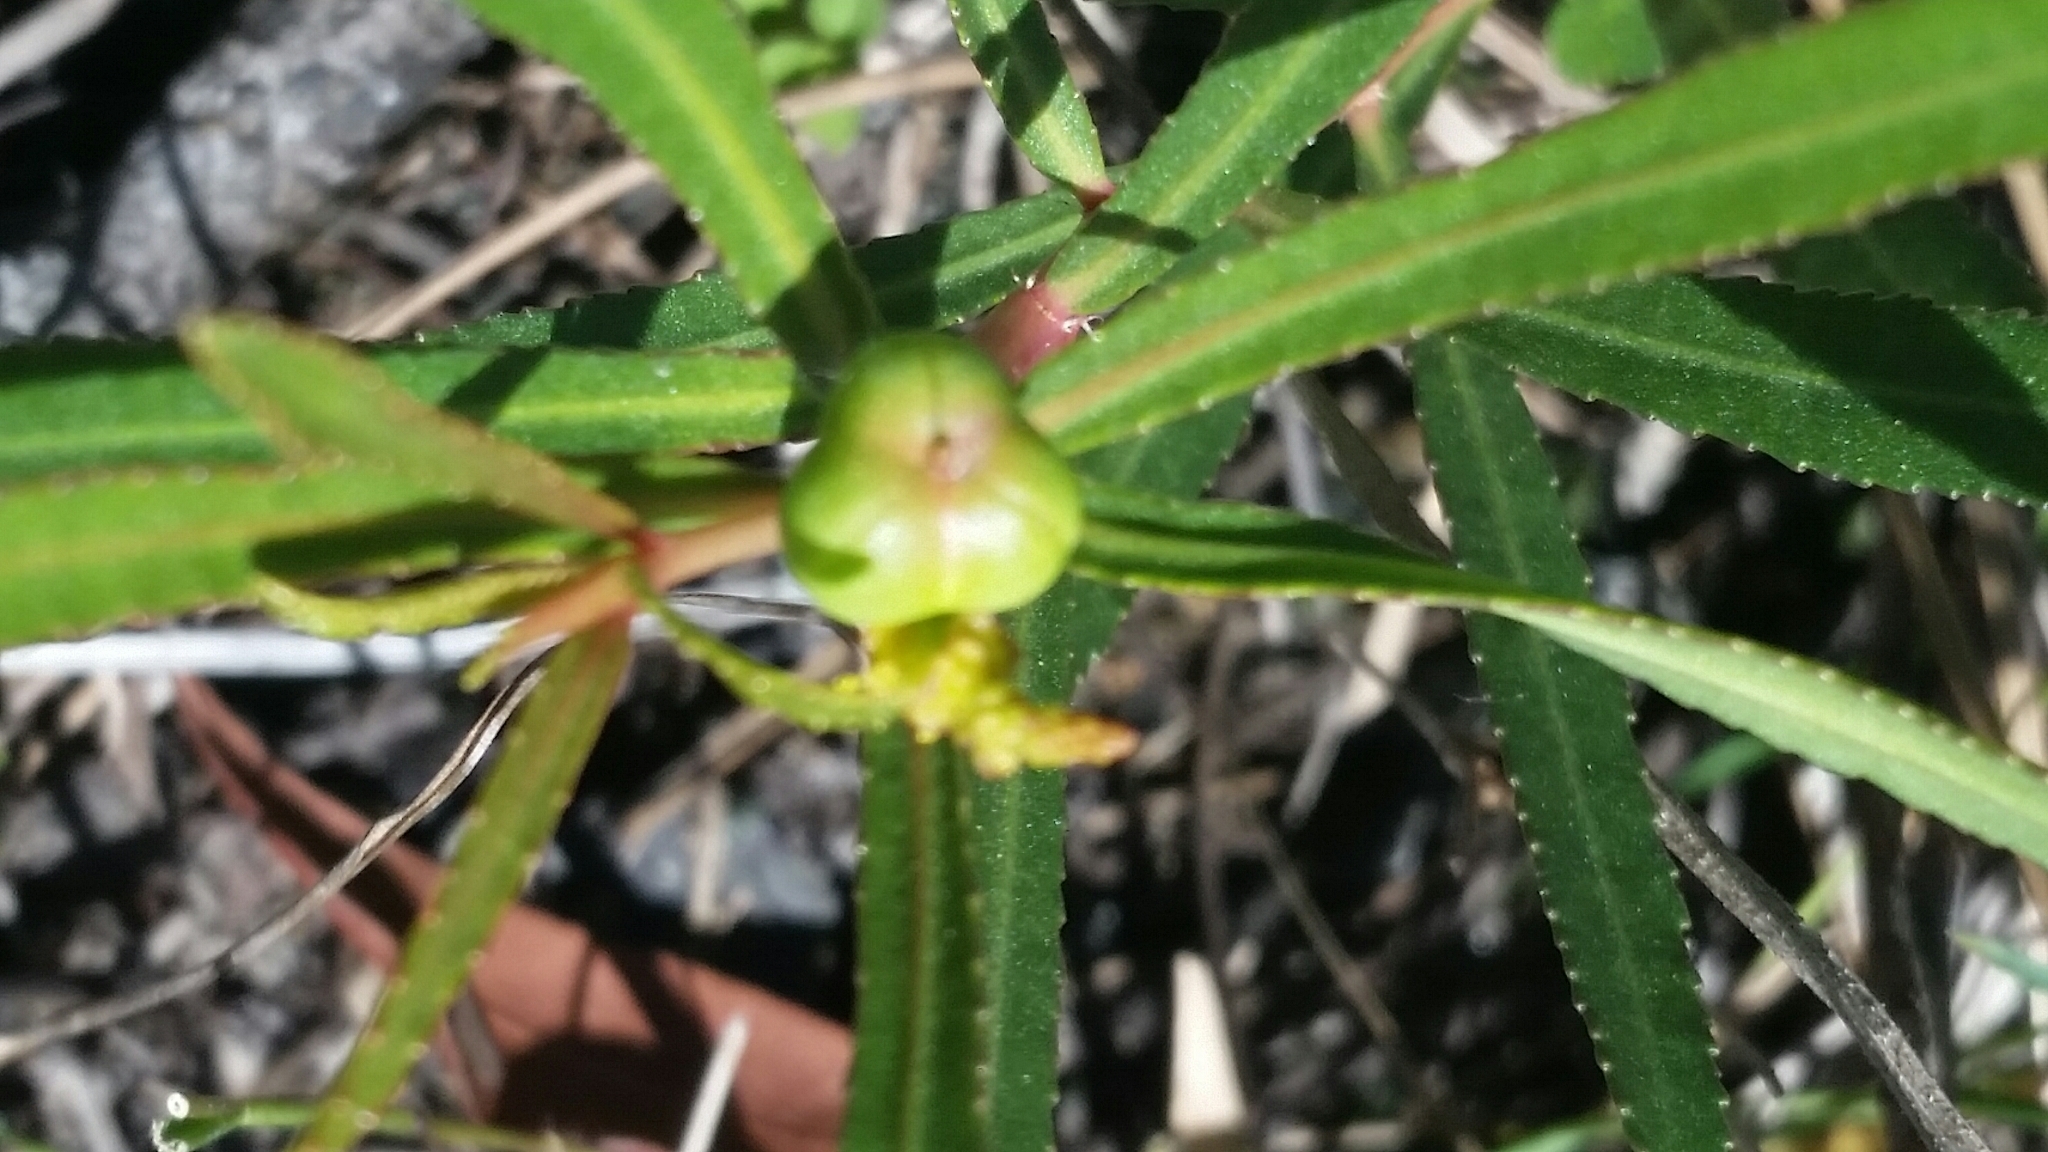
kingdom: Plantae
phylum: Tracheophyta
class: Magnoliopsida
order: Malpighiales
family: Euphorbiaceae
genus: Stillingia
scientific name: Stillingia sylvatica
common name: Queen's-delight
